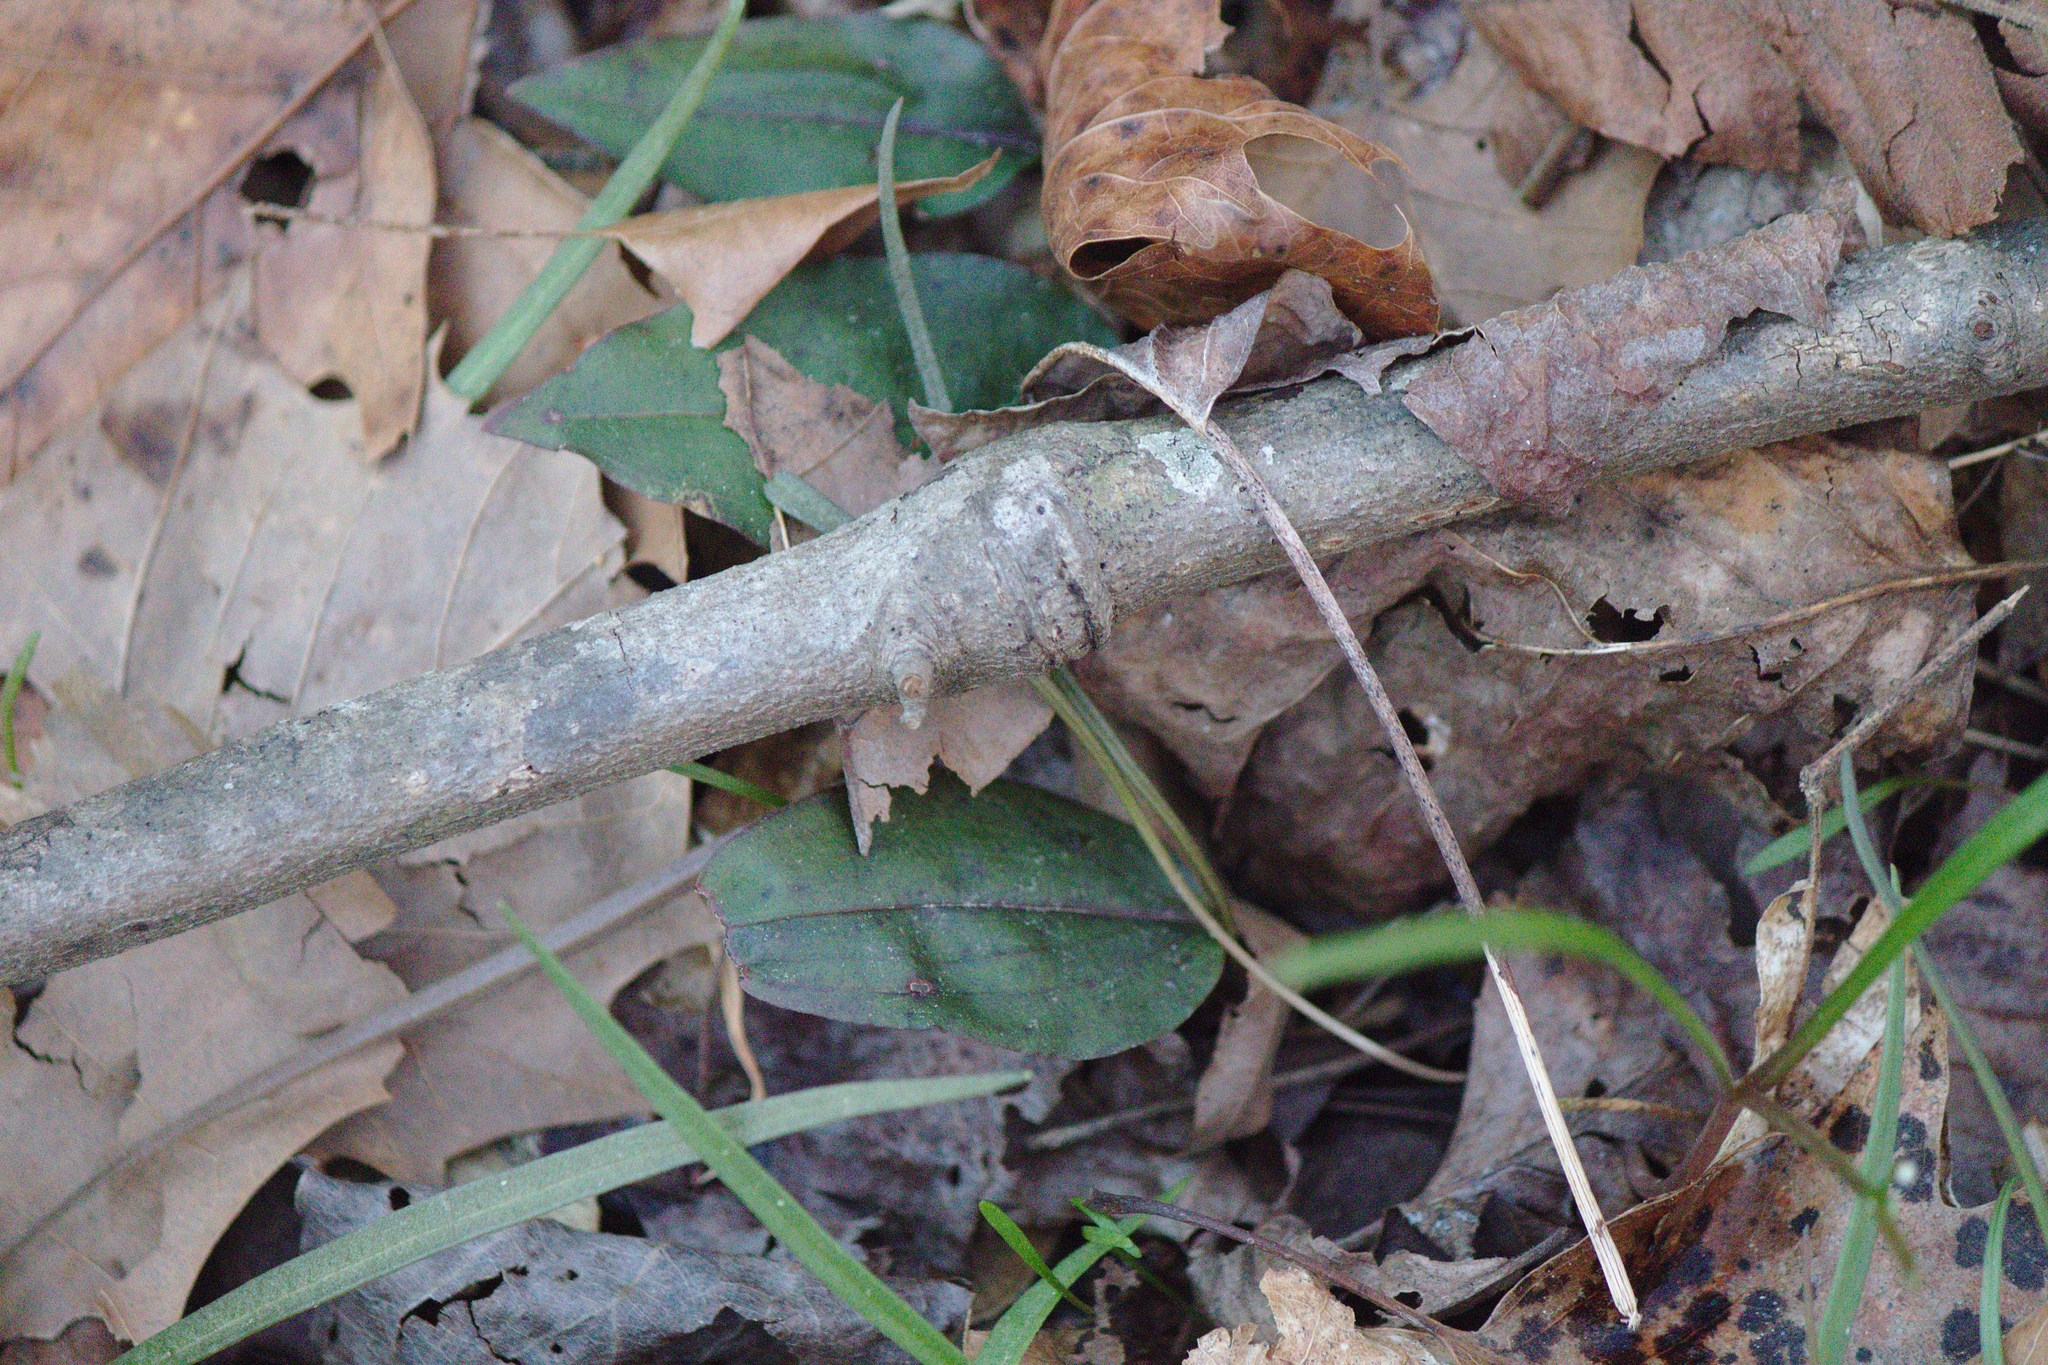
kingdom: Plantae
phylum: Tracheophyta
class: Liliopsida
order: Asparagales
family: Orchidaceae
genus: Tipularia
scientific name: Tipularia discolor
